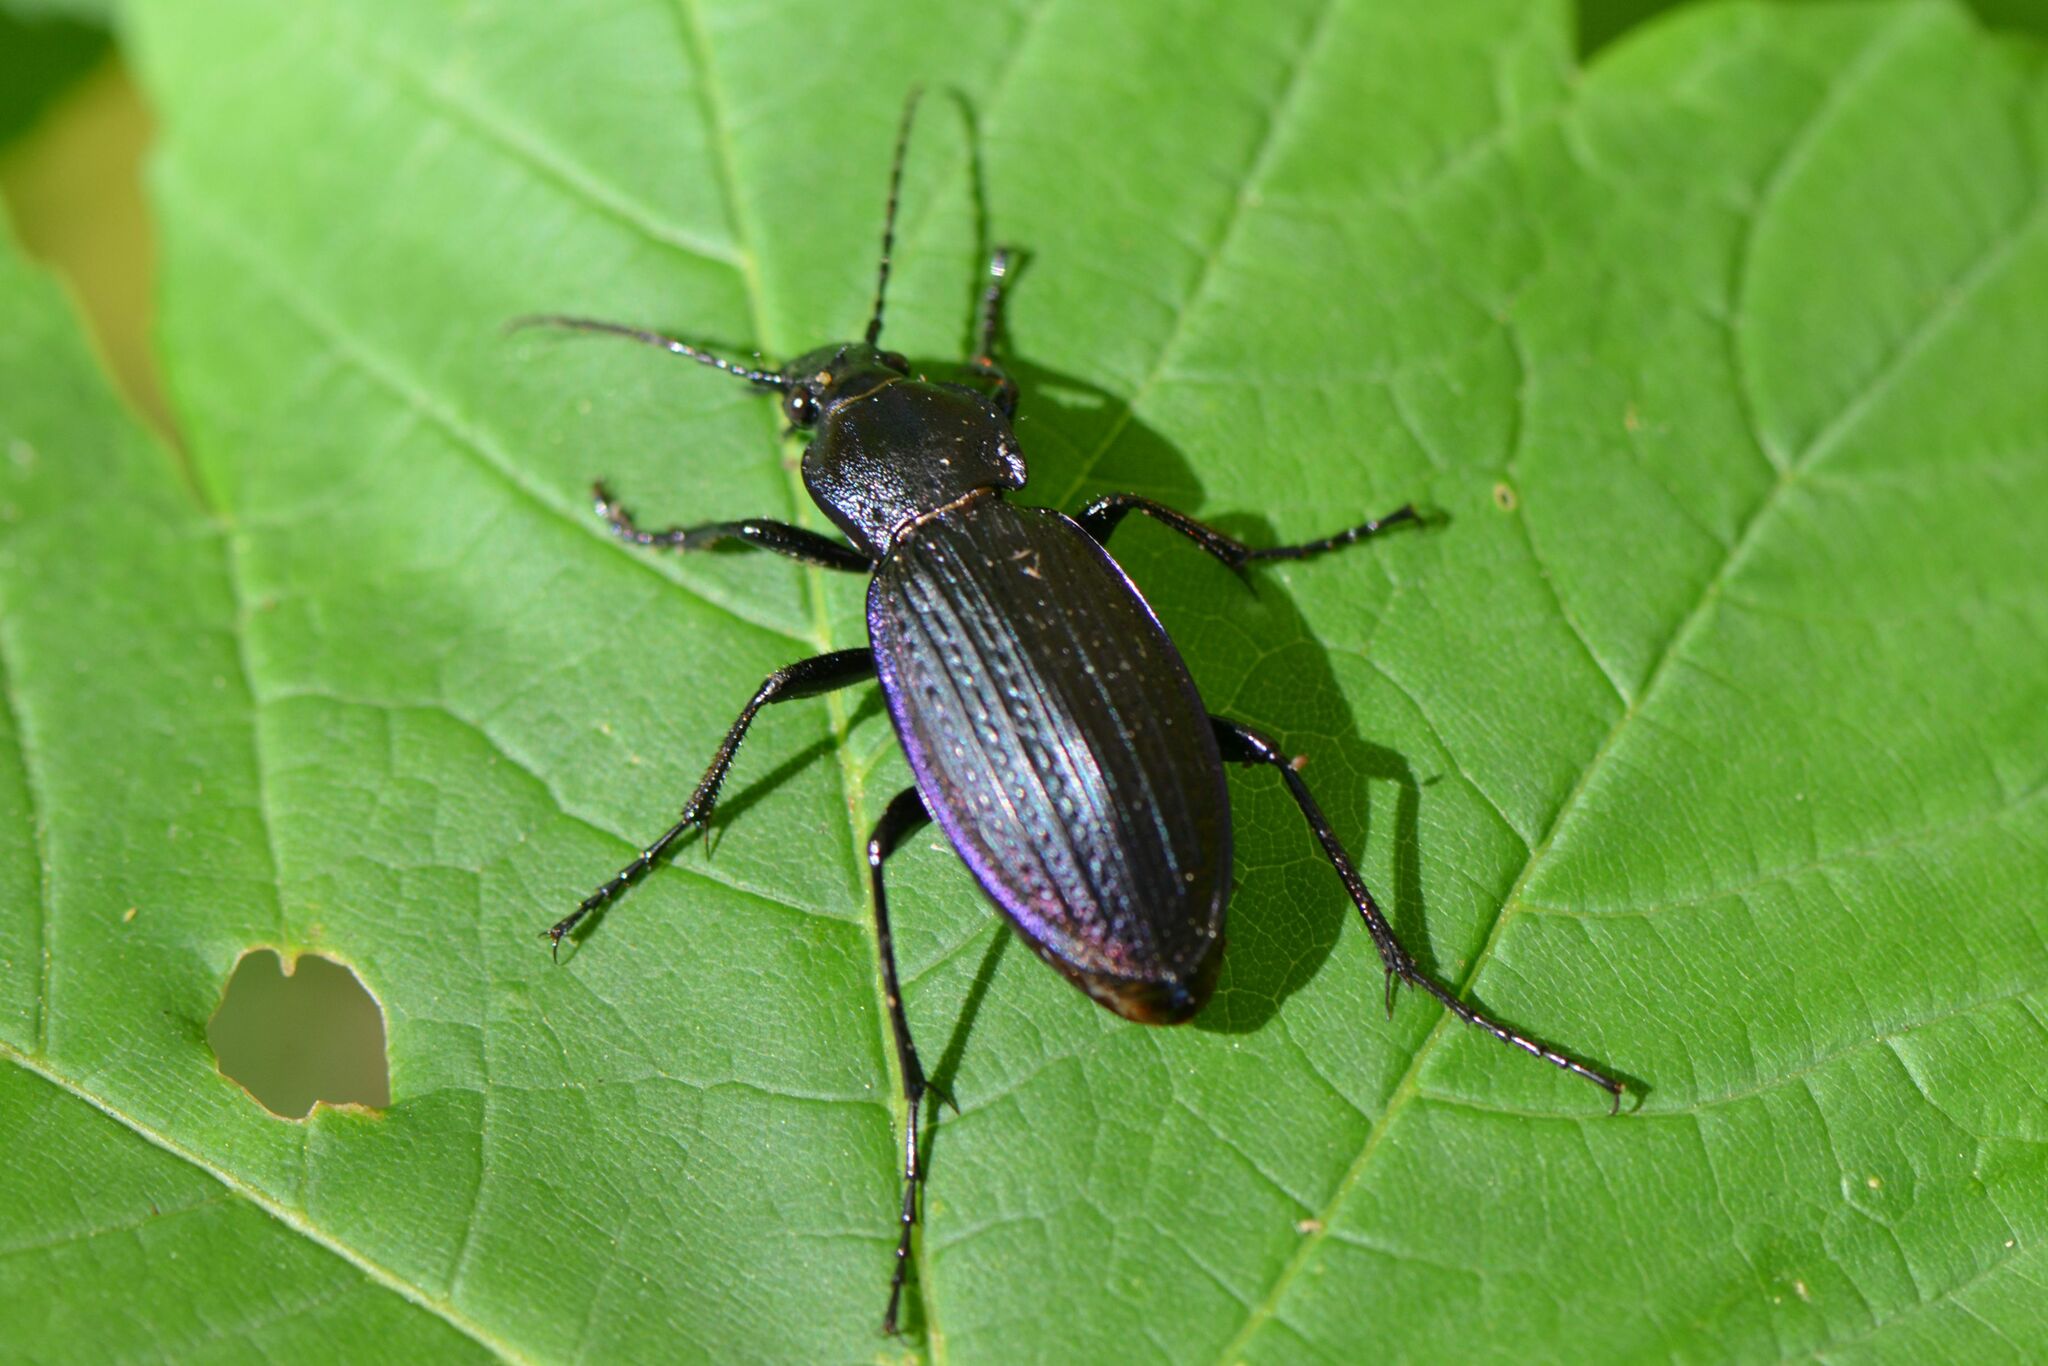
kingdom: Animalia
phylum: Arthropoda
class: Insecta
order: Coleoptera
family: Carabidae
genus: Carabus
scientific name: Carabus monilis
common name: Necklace ground beetle
